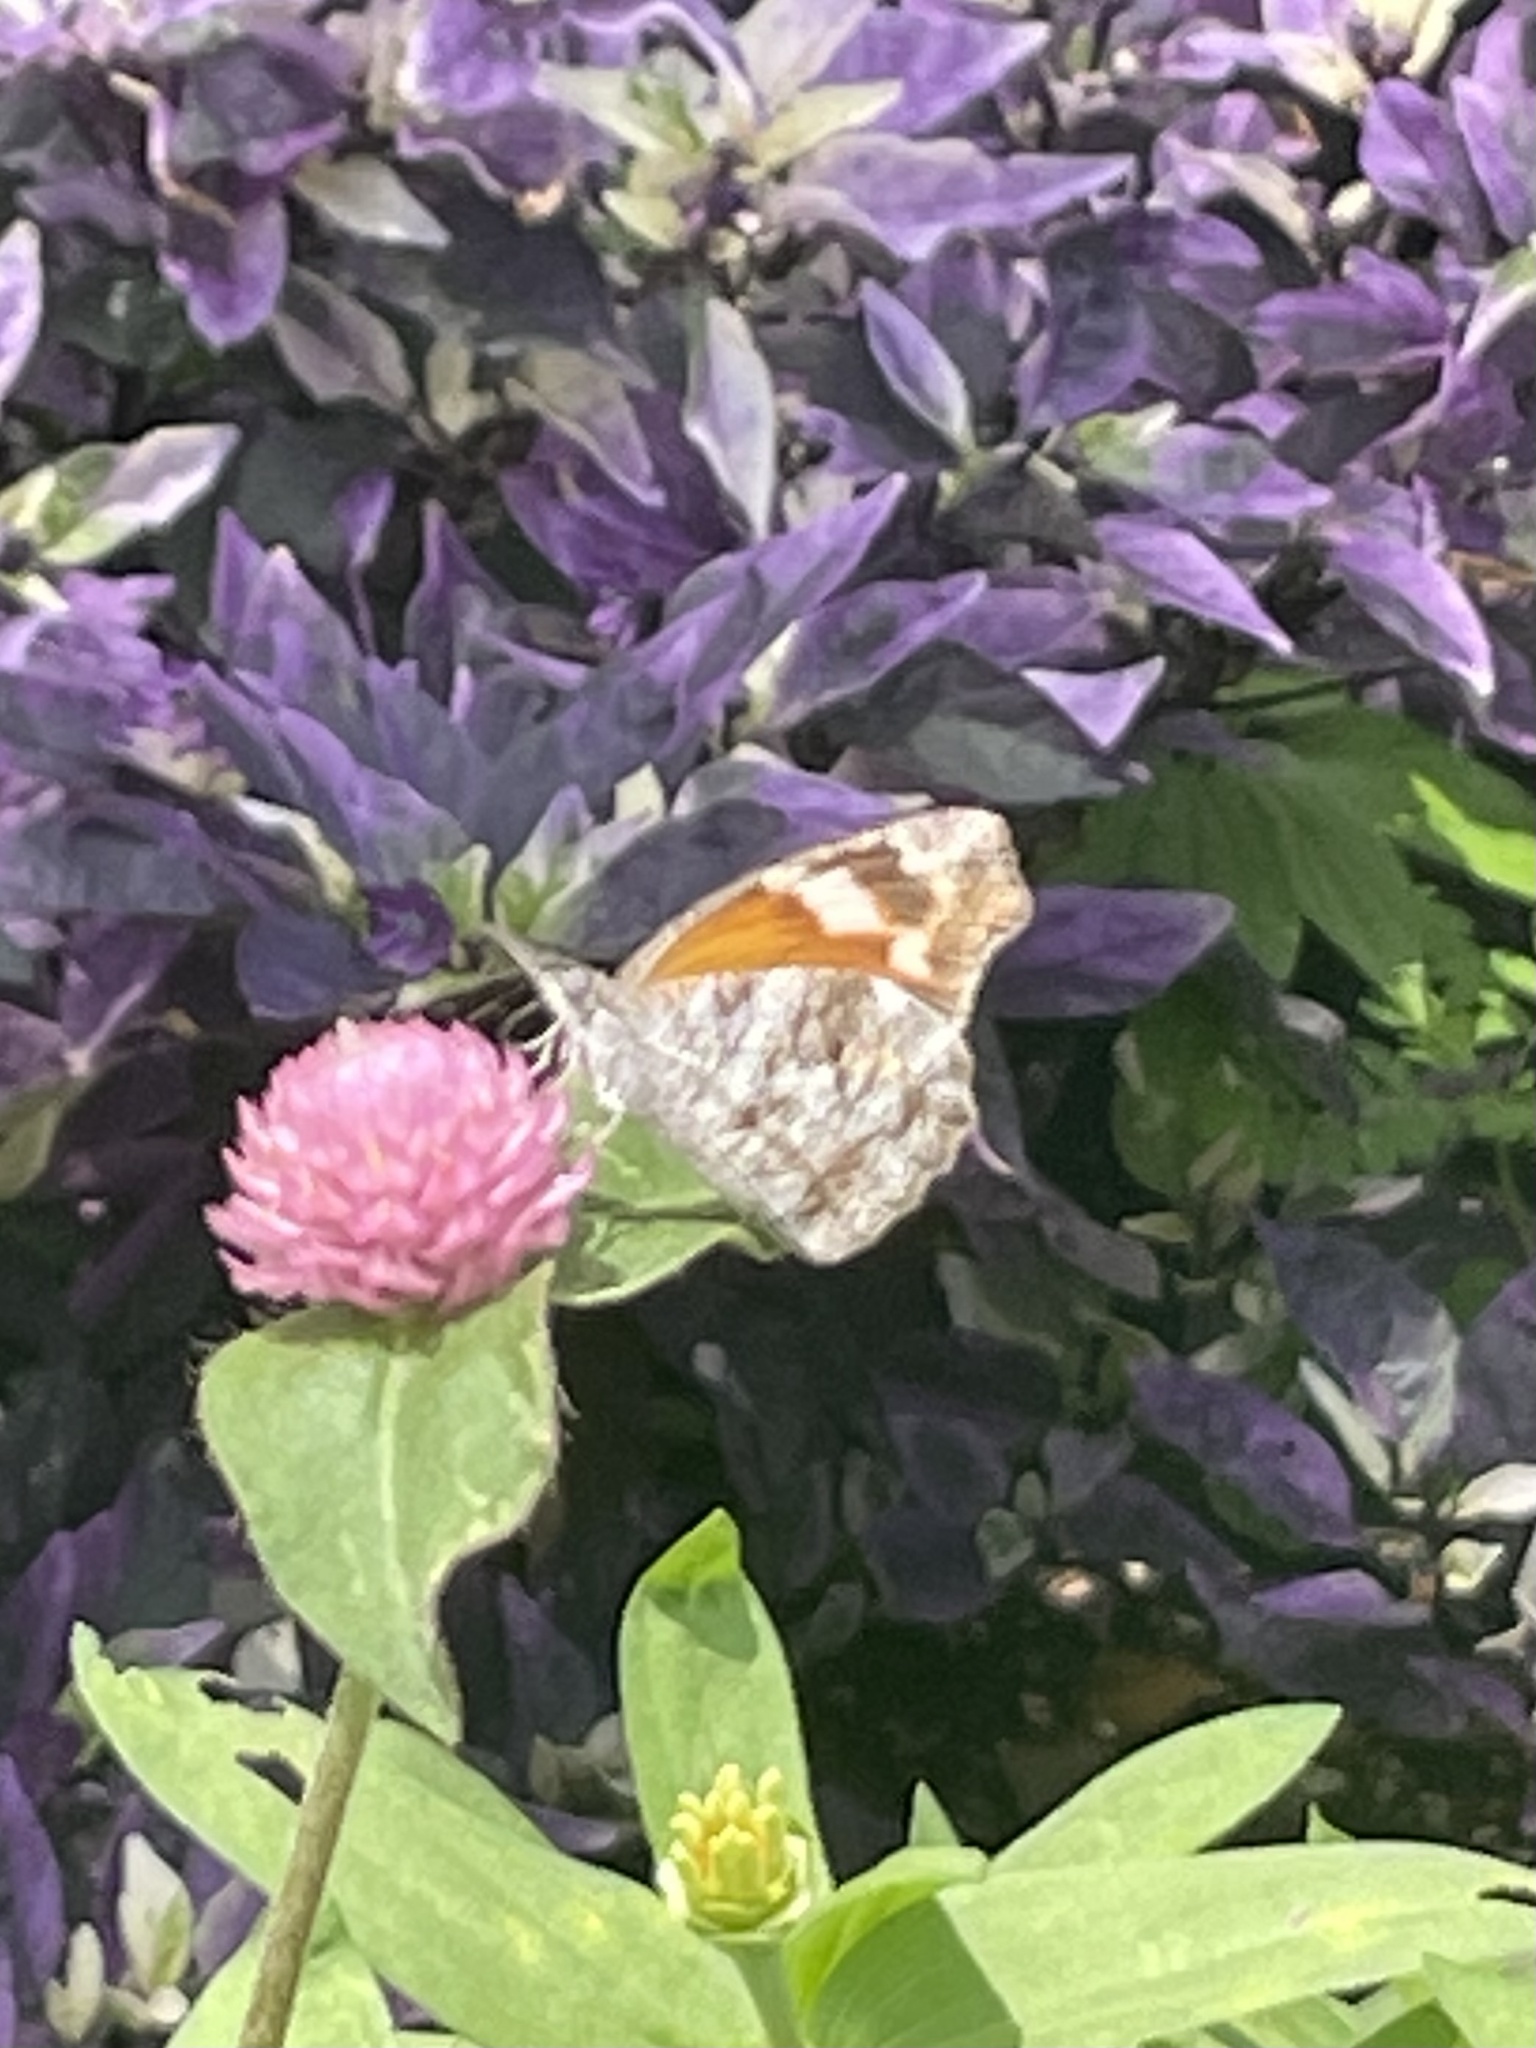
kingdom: Animalia
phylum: Arthropoda
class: Insecta
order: Lepidoptera
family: Nymphalidae
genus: Libytheana
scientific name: Libytheana carinenta
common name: American snout
